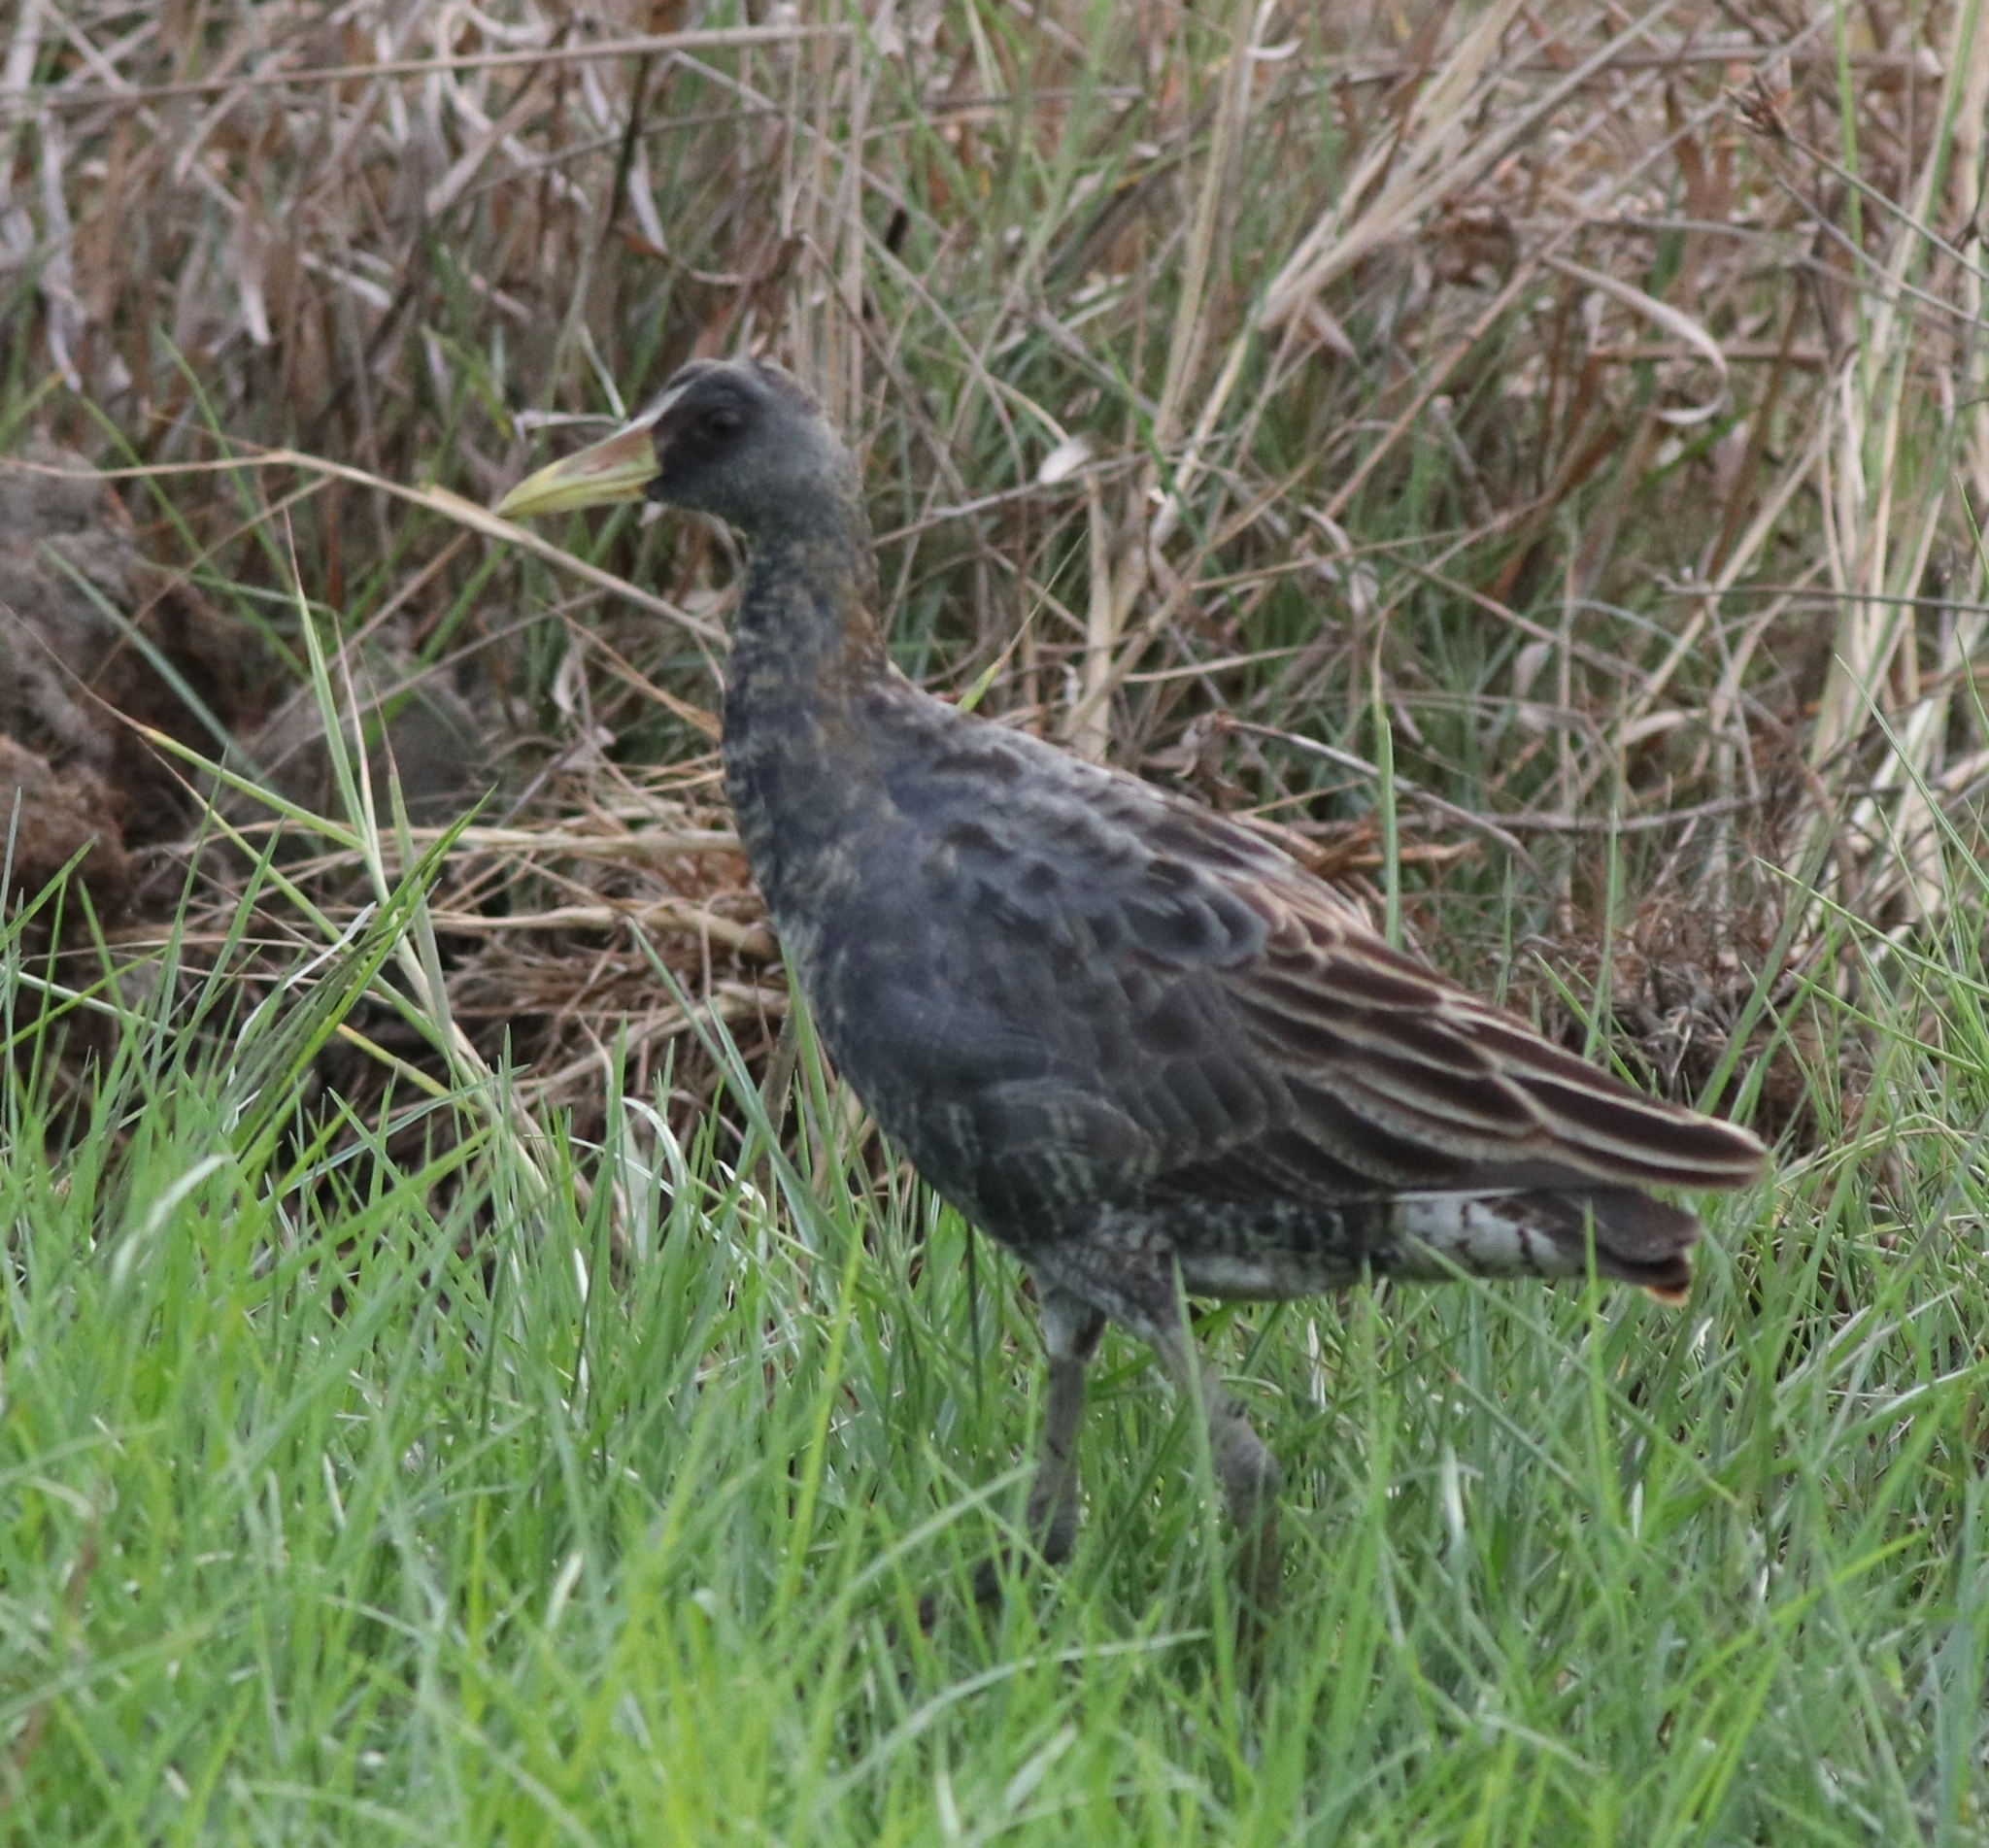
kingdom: Animalia
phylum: Chordata
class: Aves
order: Gruiformes
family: Rallidae
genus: Gallicrex
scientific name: Gallicrex cinerea
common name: Watercock
